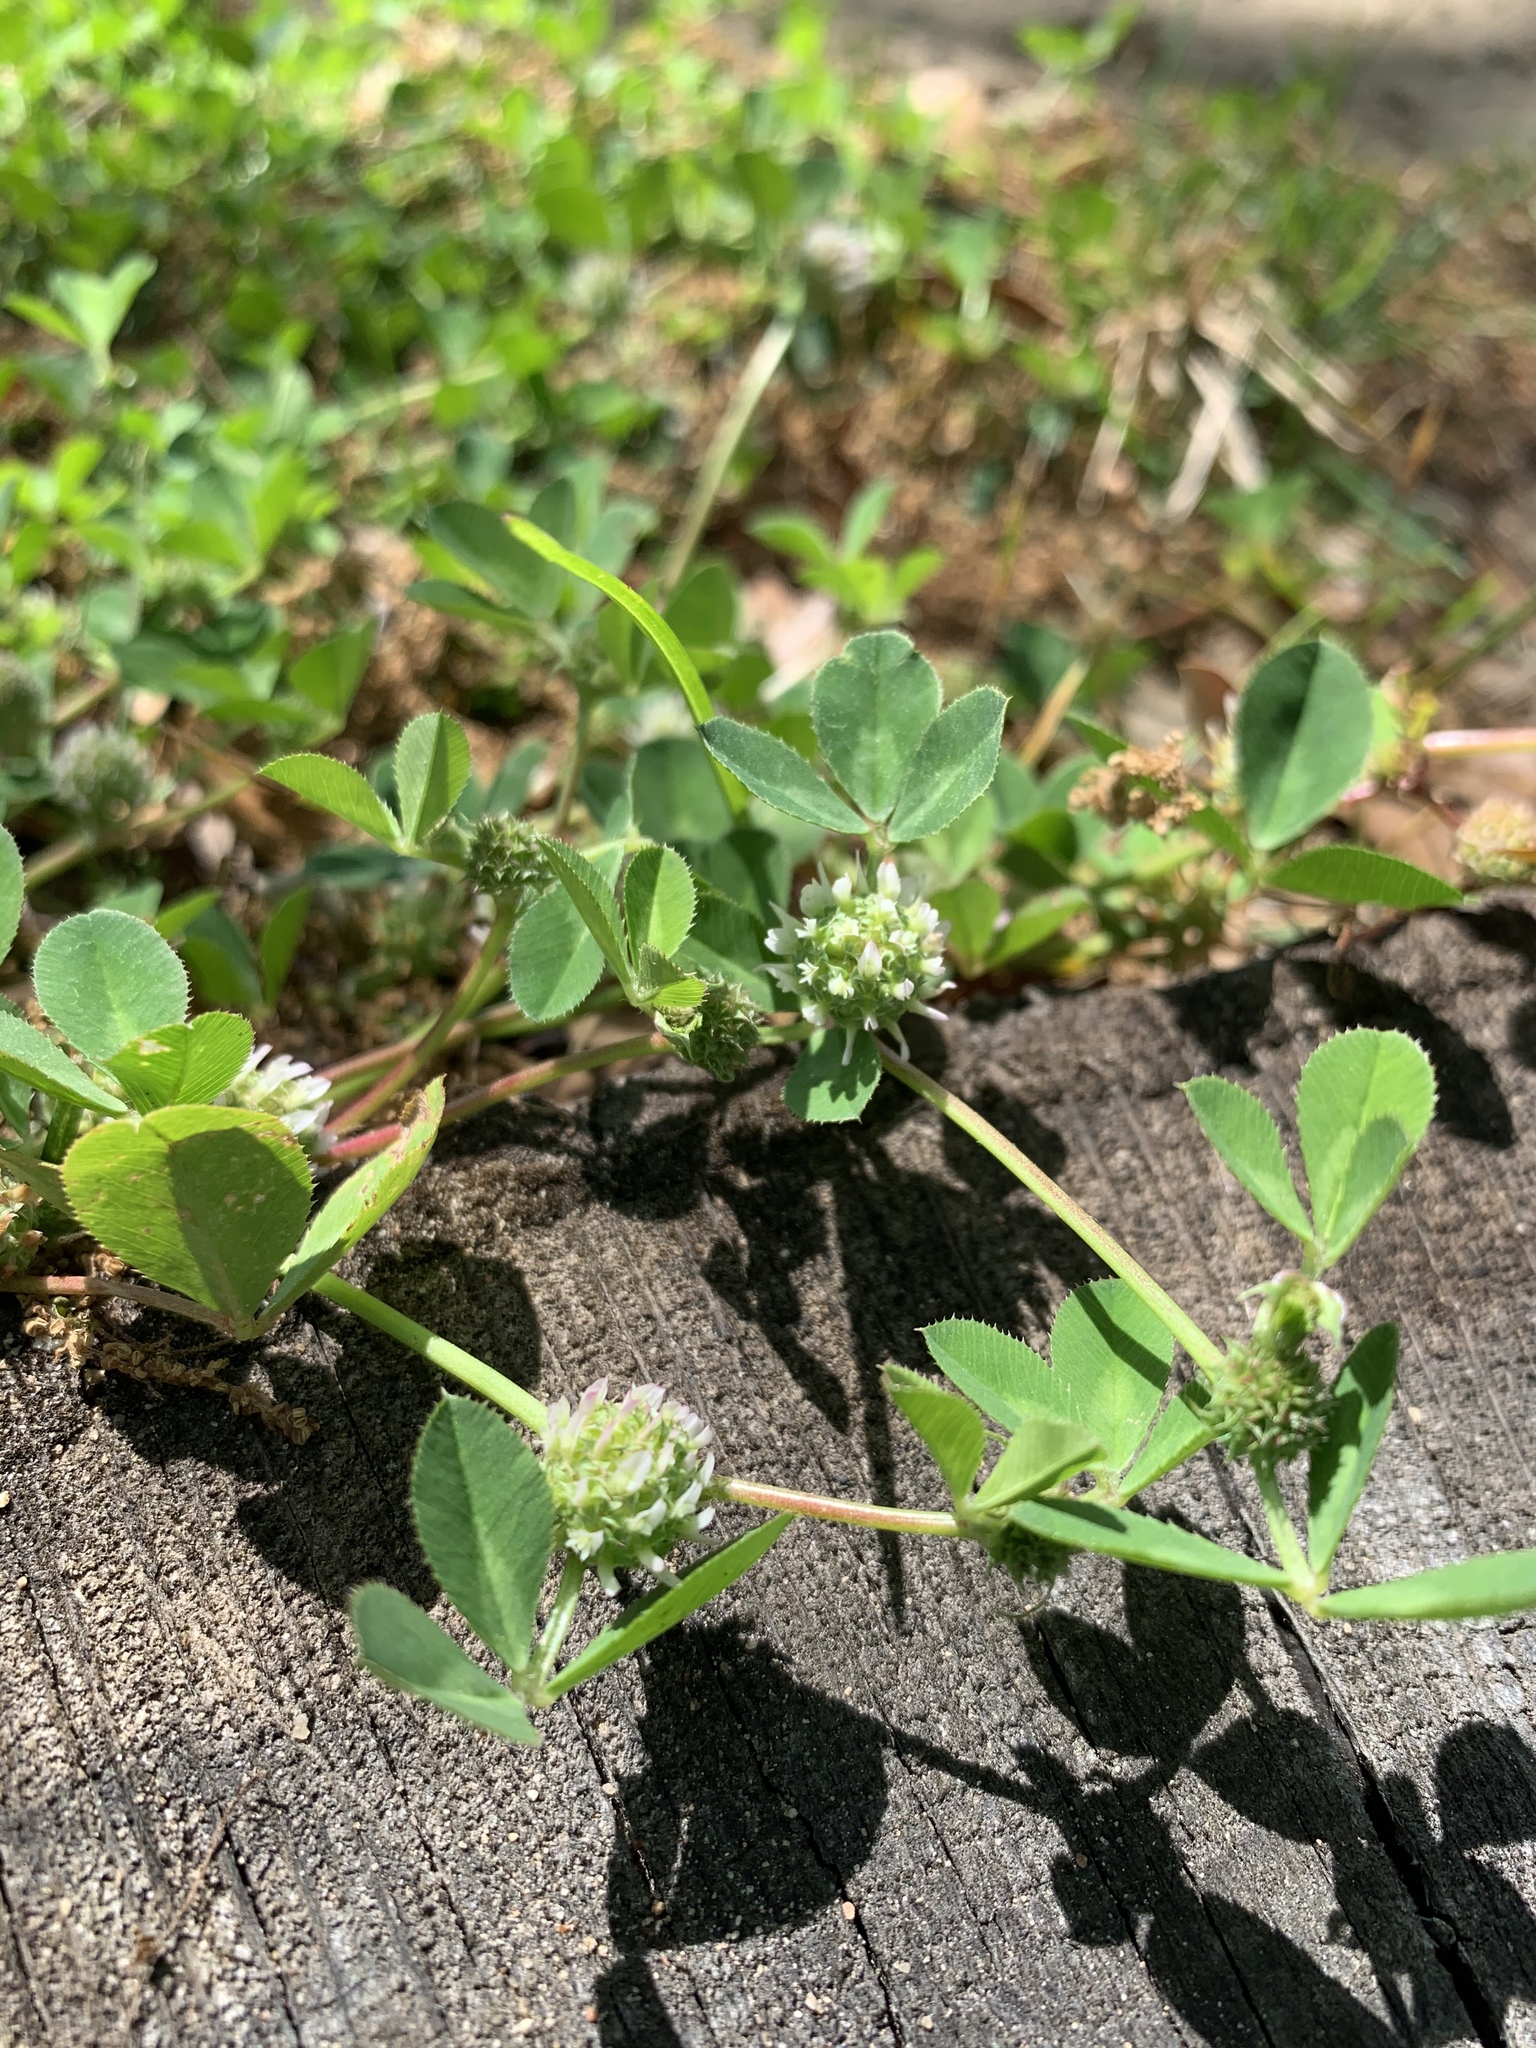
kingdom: Plantae
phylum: Tracheophyta
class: Magnoliopsida
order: Fabales
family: Fabaceae
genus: Trifolium
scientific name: Trifolium glomeratum
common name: Clustered clover
